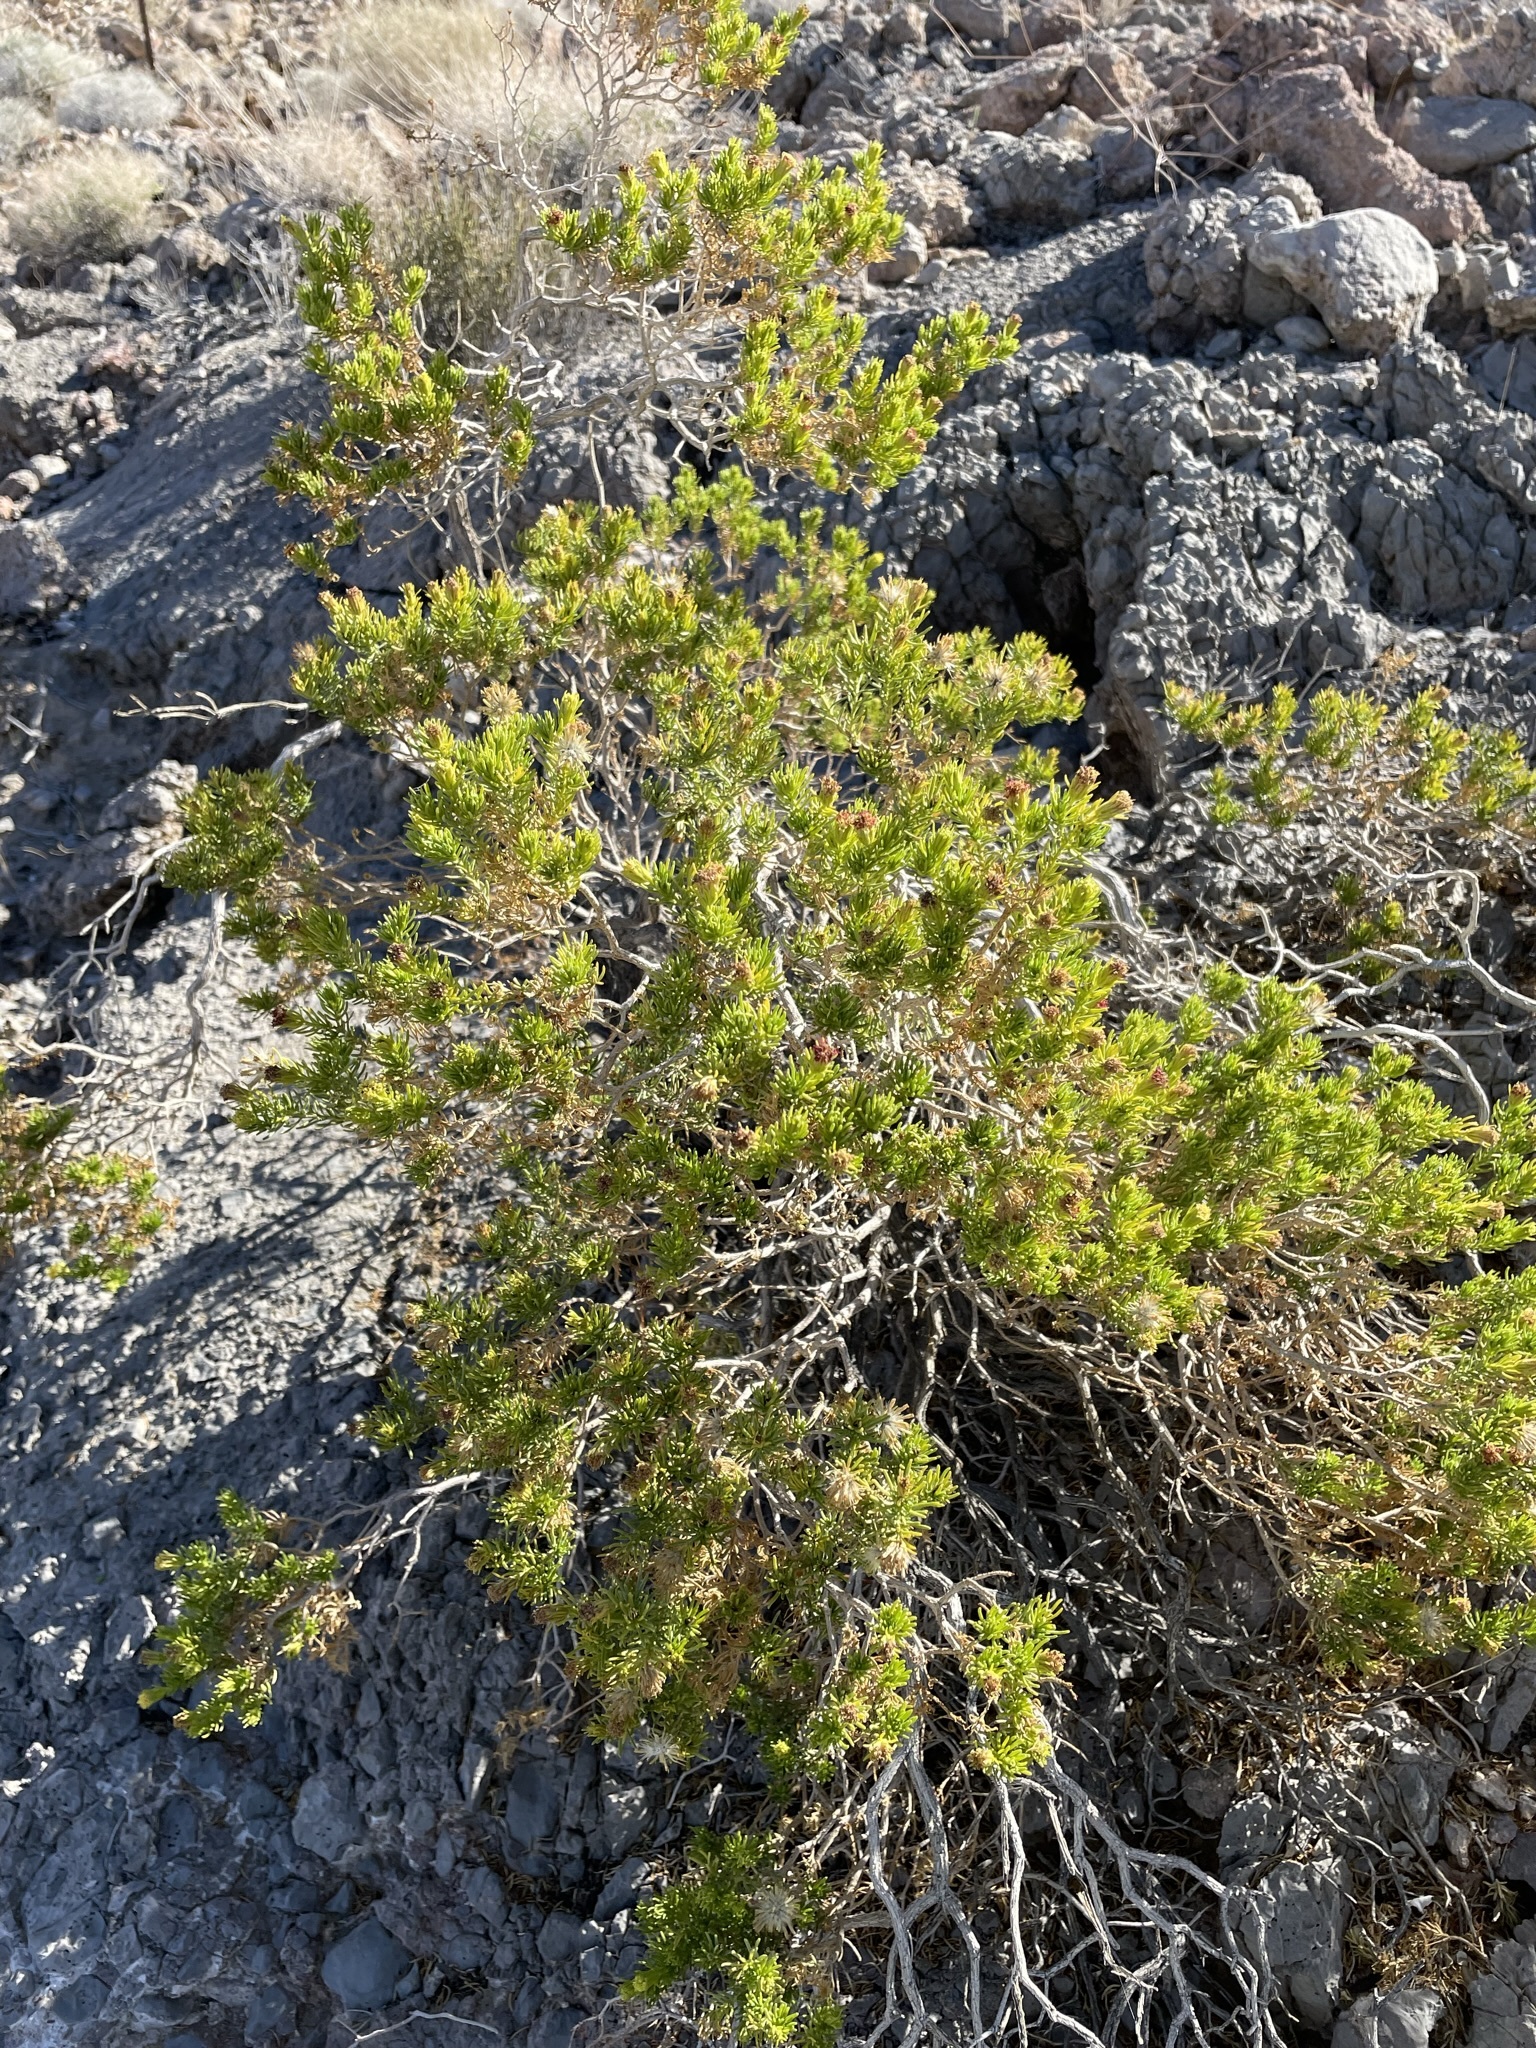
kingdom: Plantae
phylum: Tracheophyta
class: Magnoliopsida
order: Asterales
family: Asteraceae
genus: Peucephyllum
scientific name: Peucephyllum schottii
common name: Pygmy-cedar
